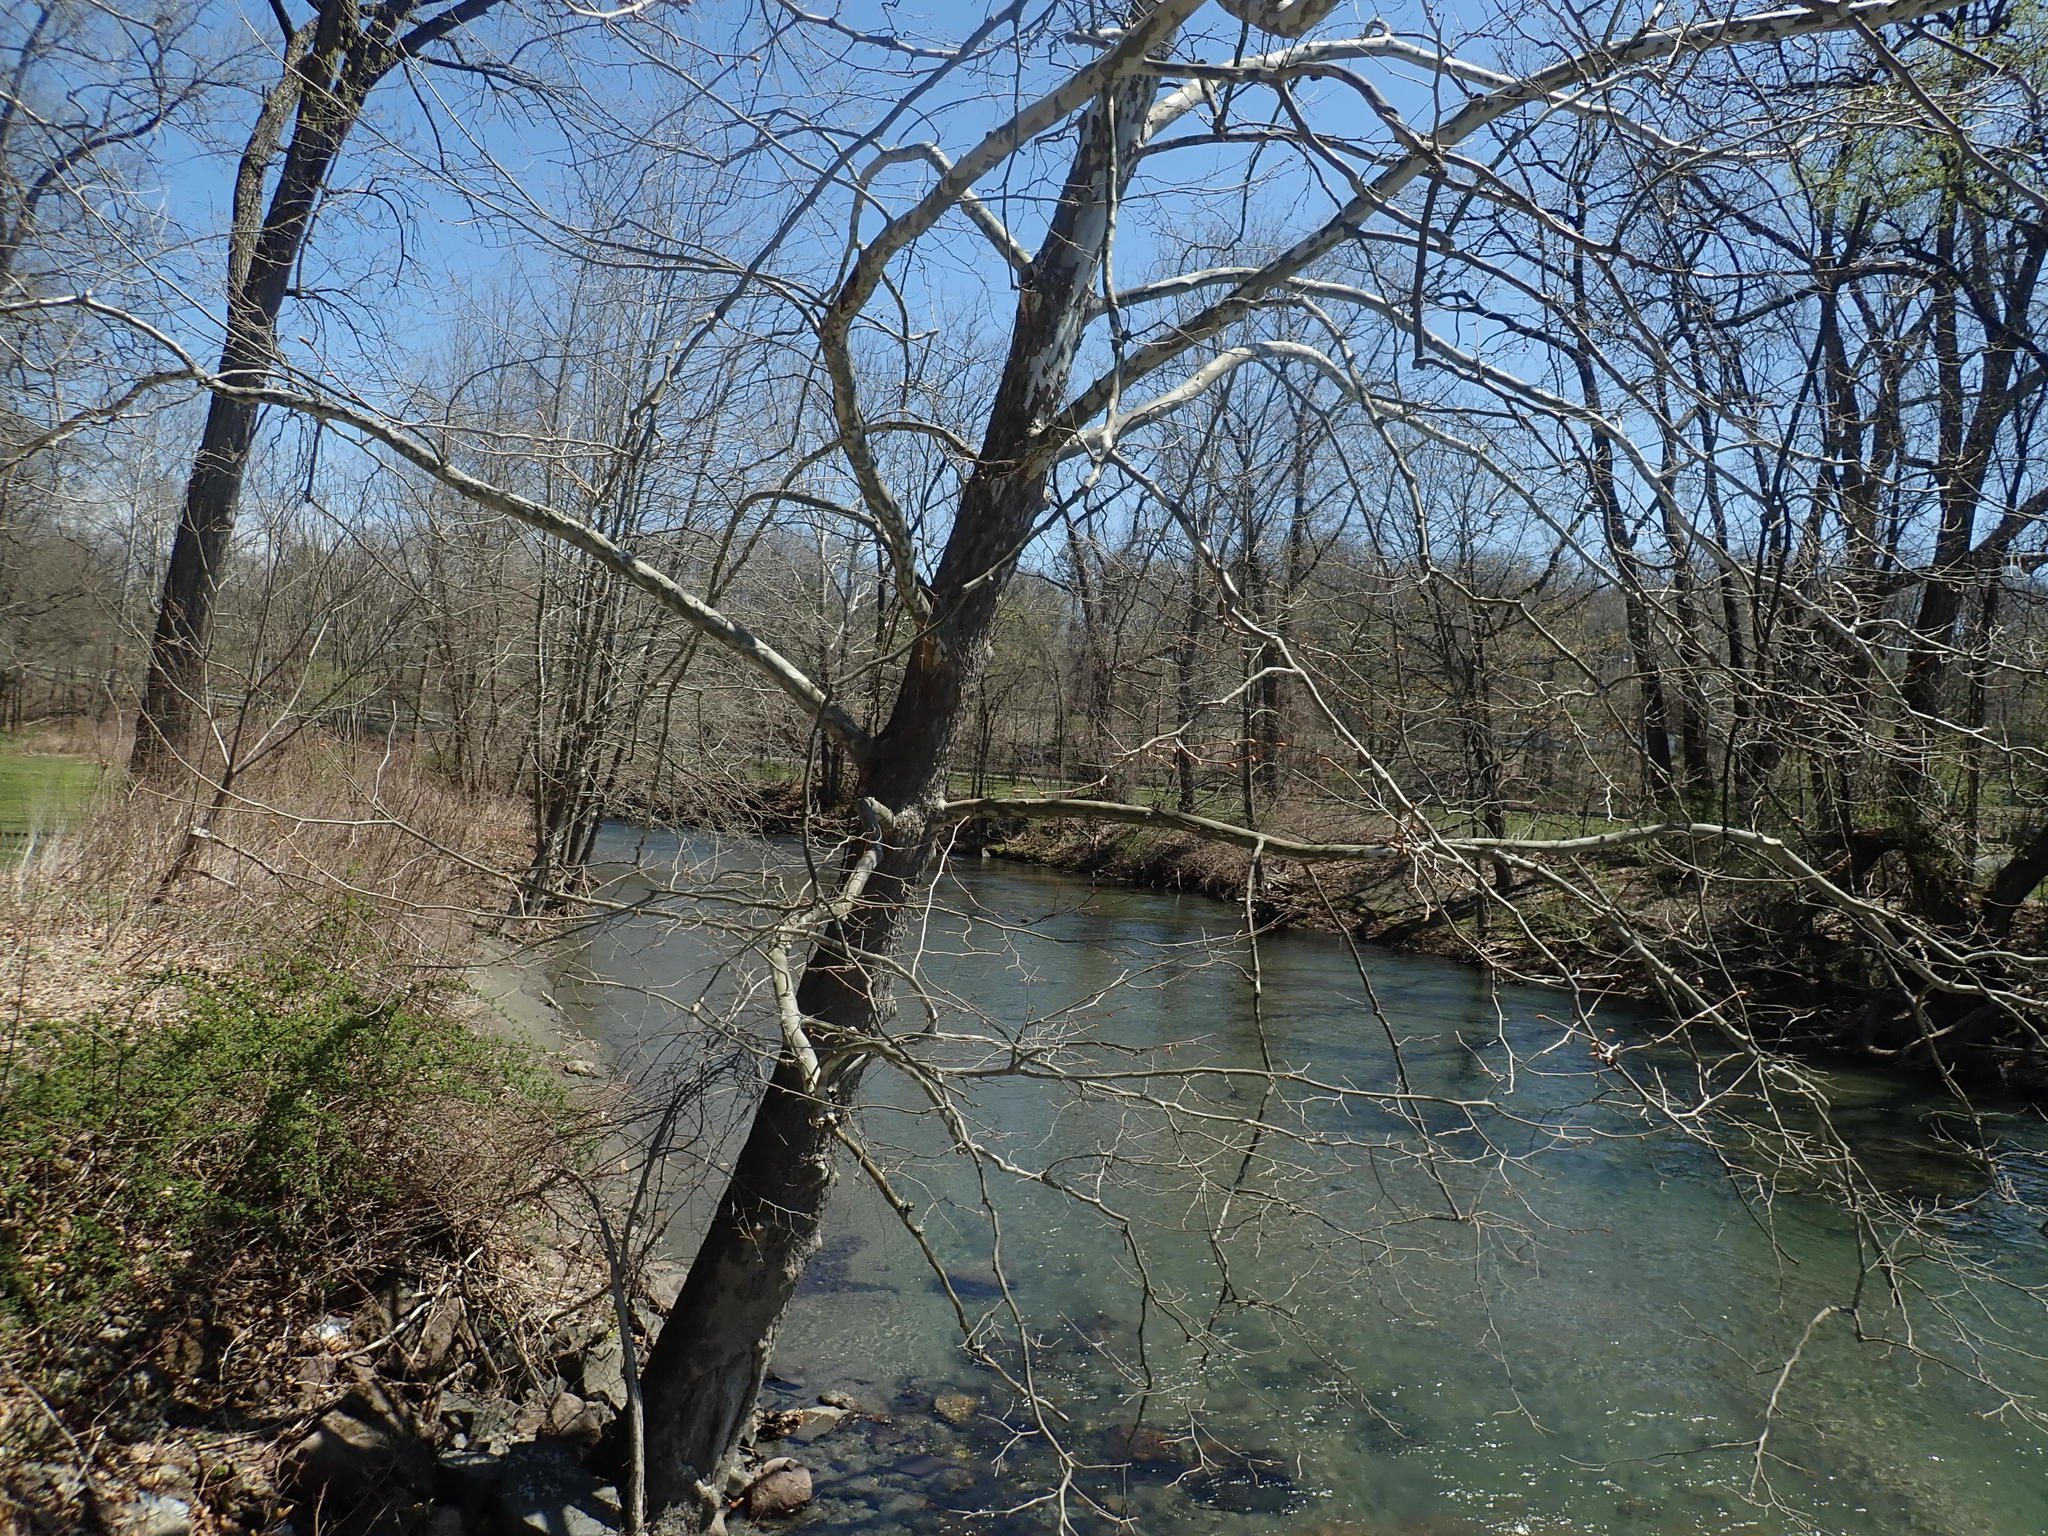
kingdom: Plantae
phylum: Tracheophyta
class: Magnoliopsida
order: Proteales
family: Platanaceae
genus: Platanus
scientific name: Platanus occidentalis
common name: American sycamore
